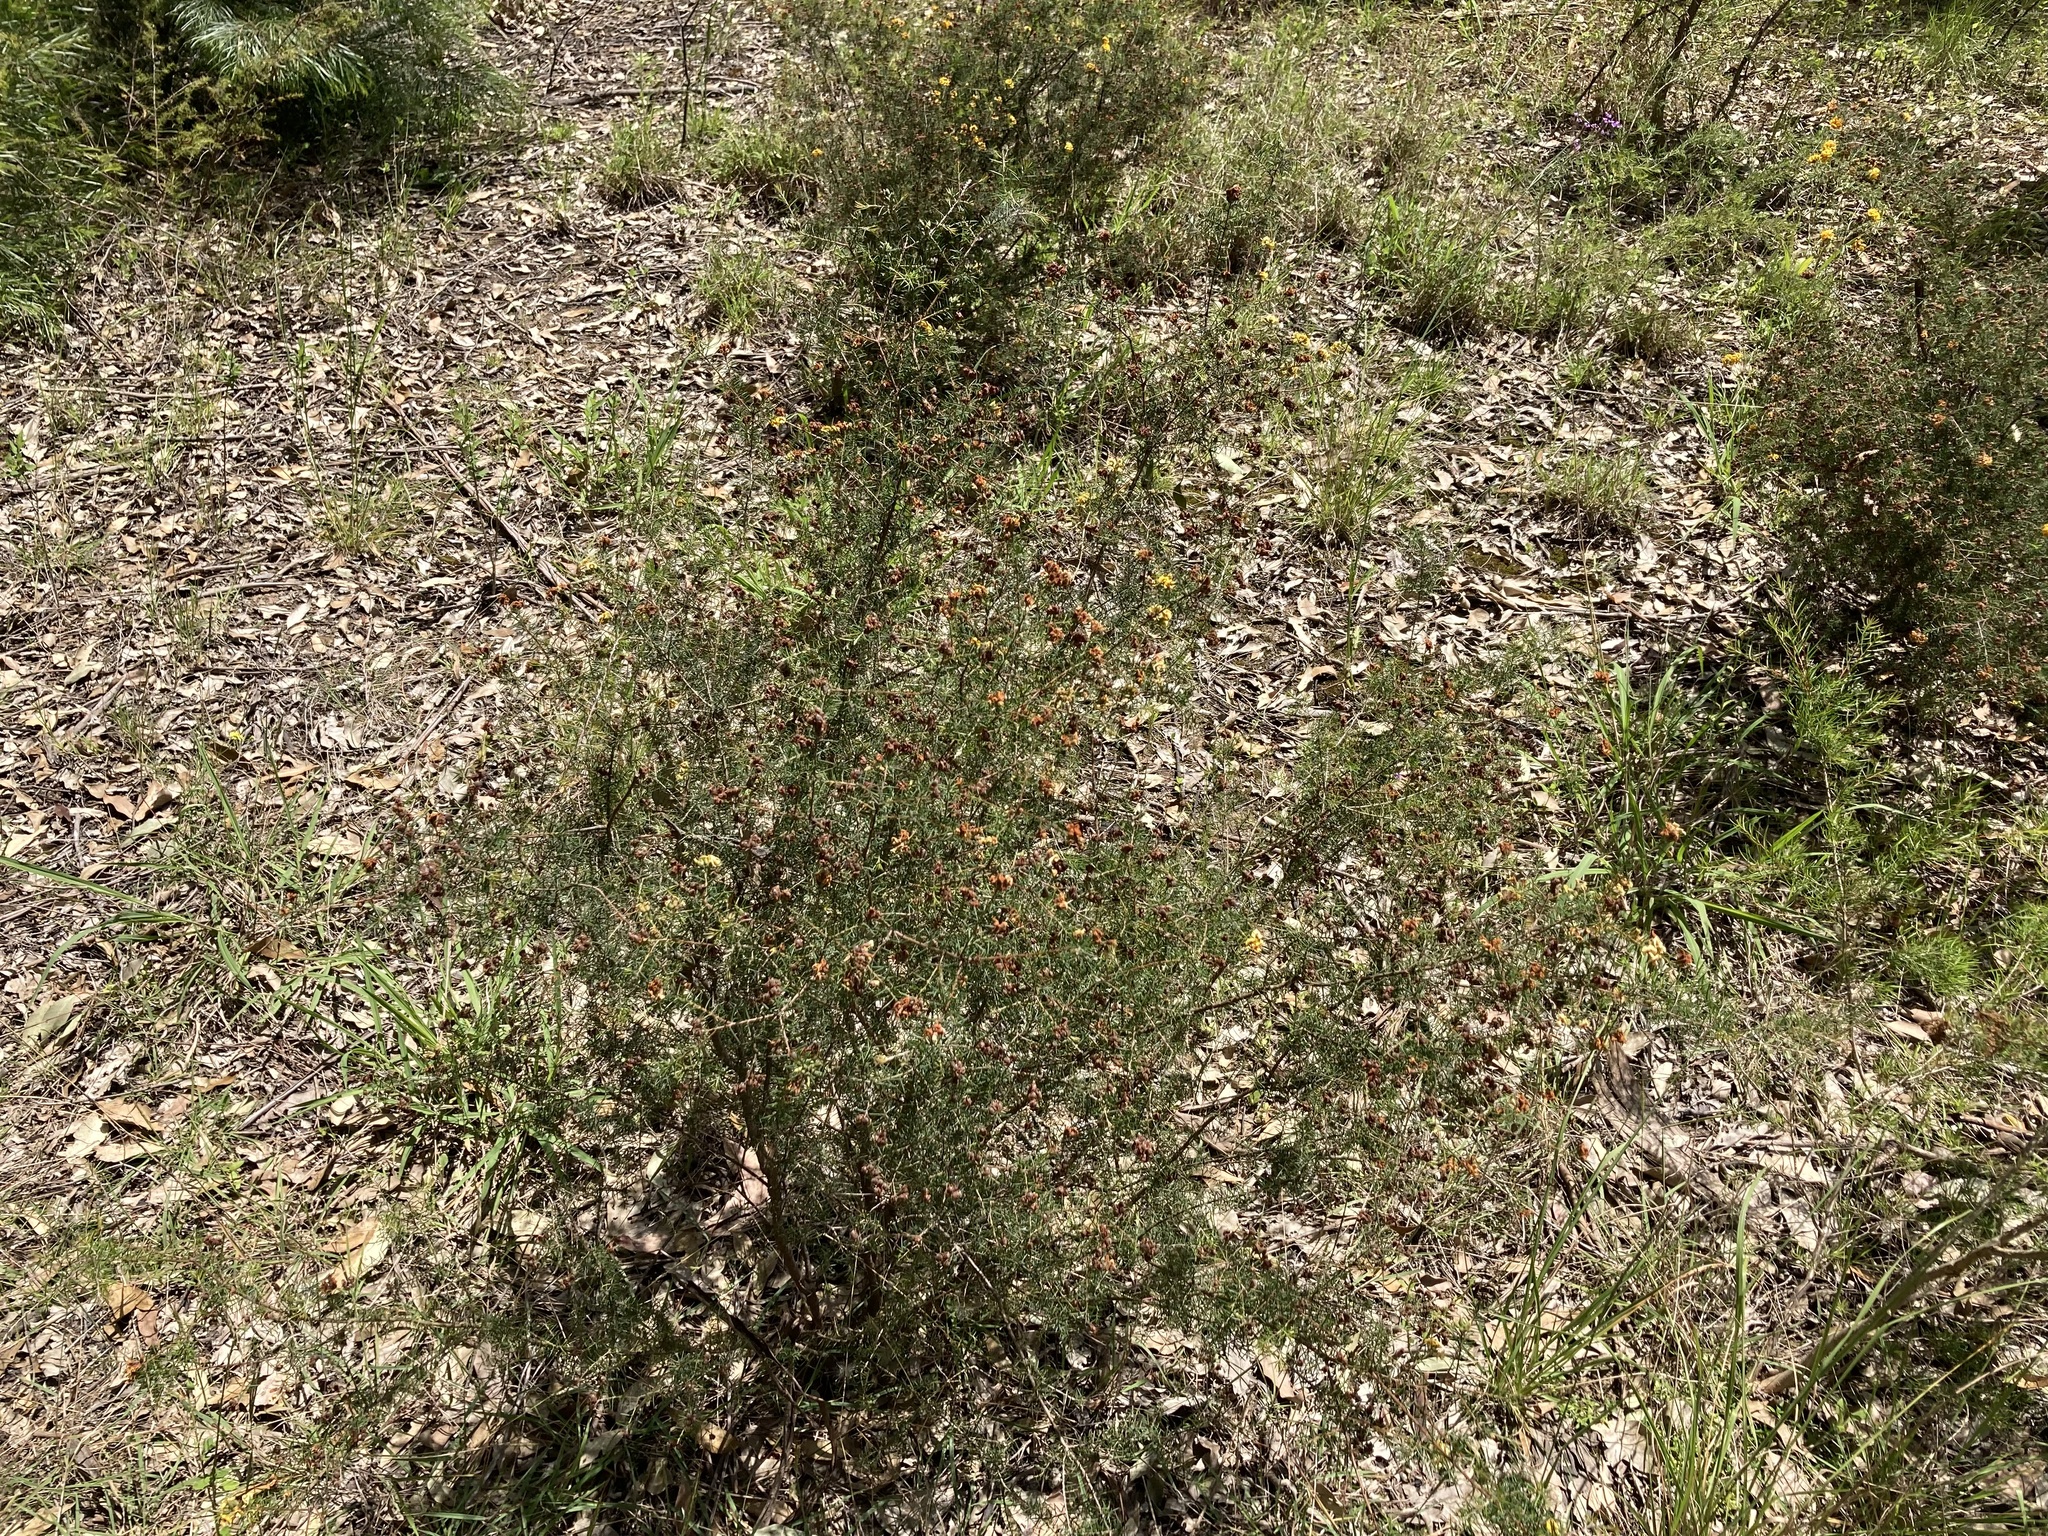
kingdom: Plantae
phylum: Tracheophyta
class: Magnoliopsida
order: Fabales
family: Fabaceae
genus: Dillwynia
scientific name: Dillwynia sieberi
